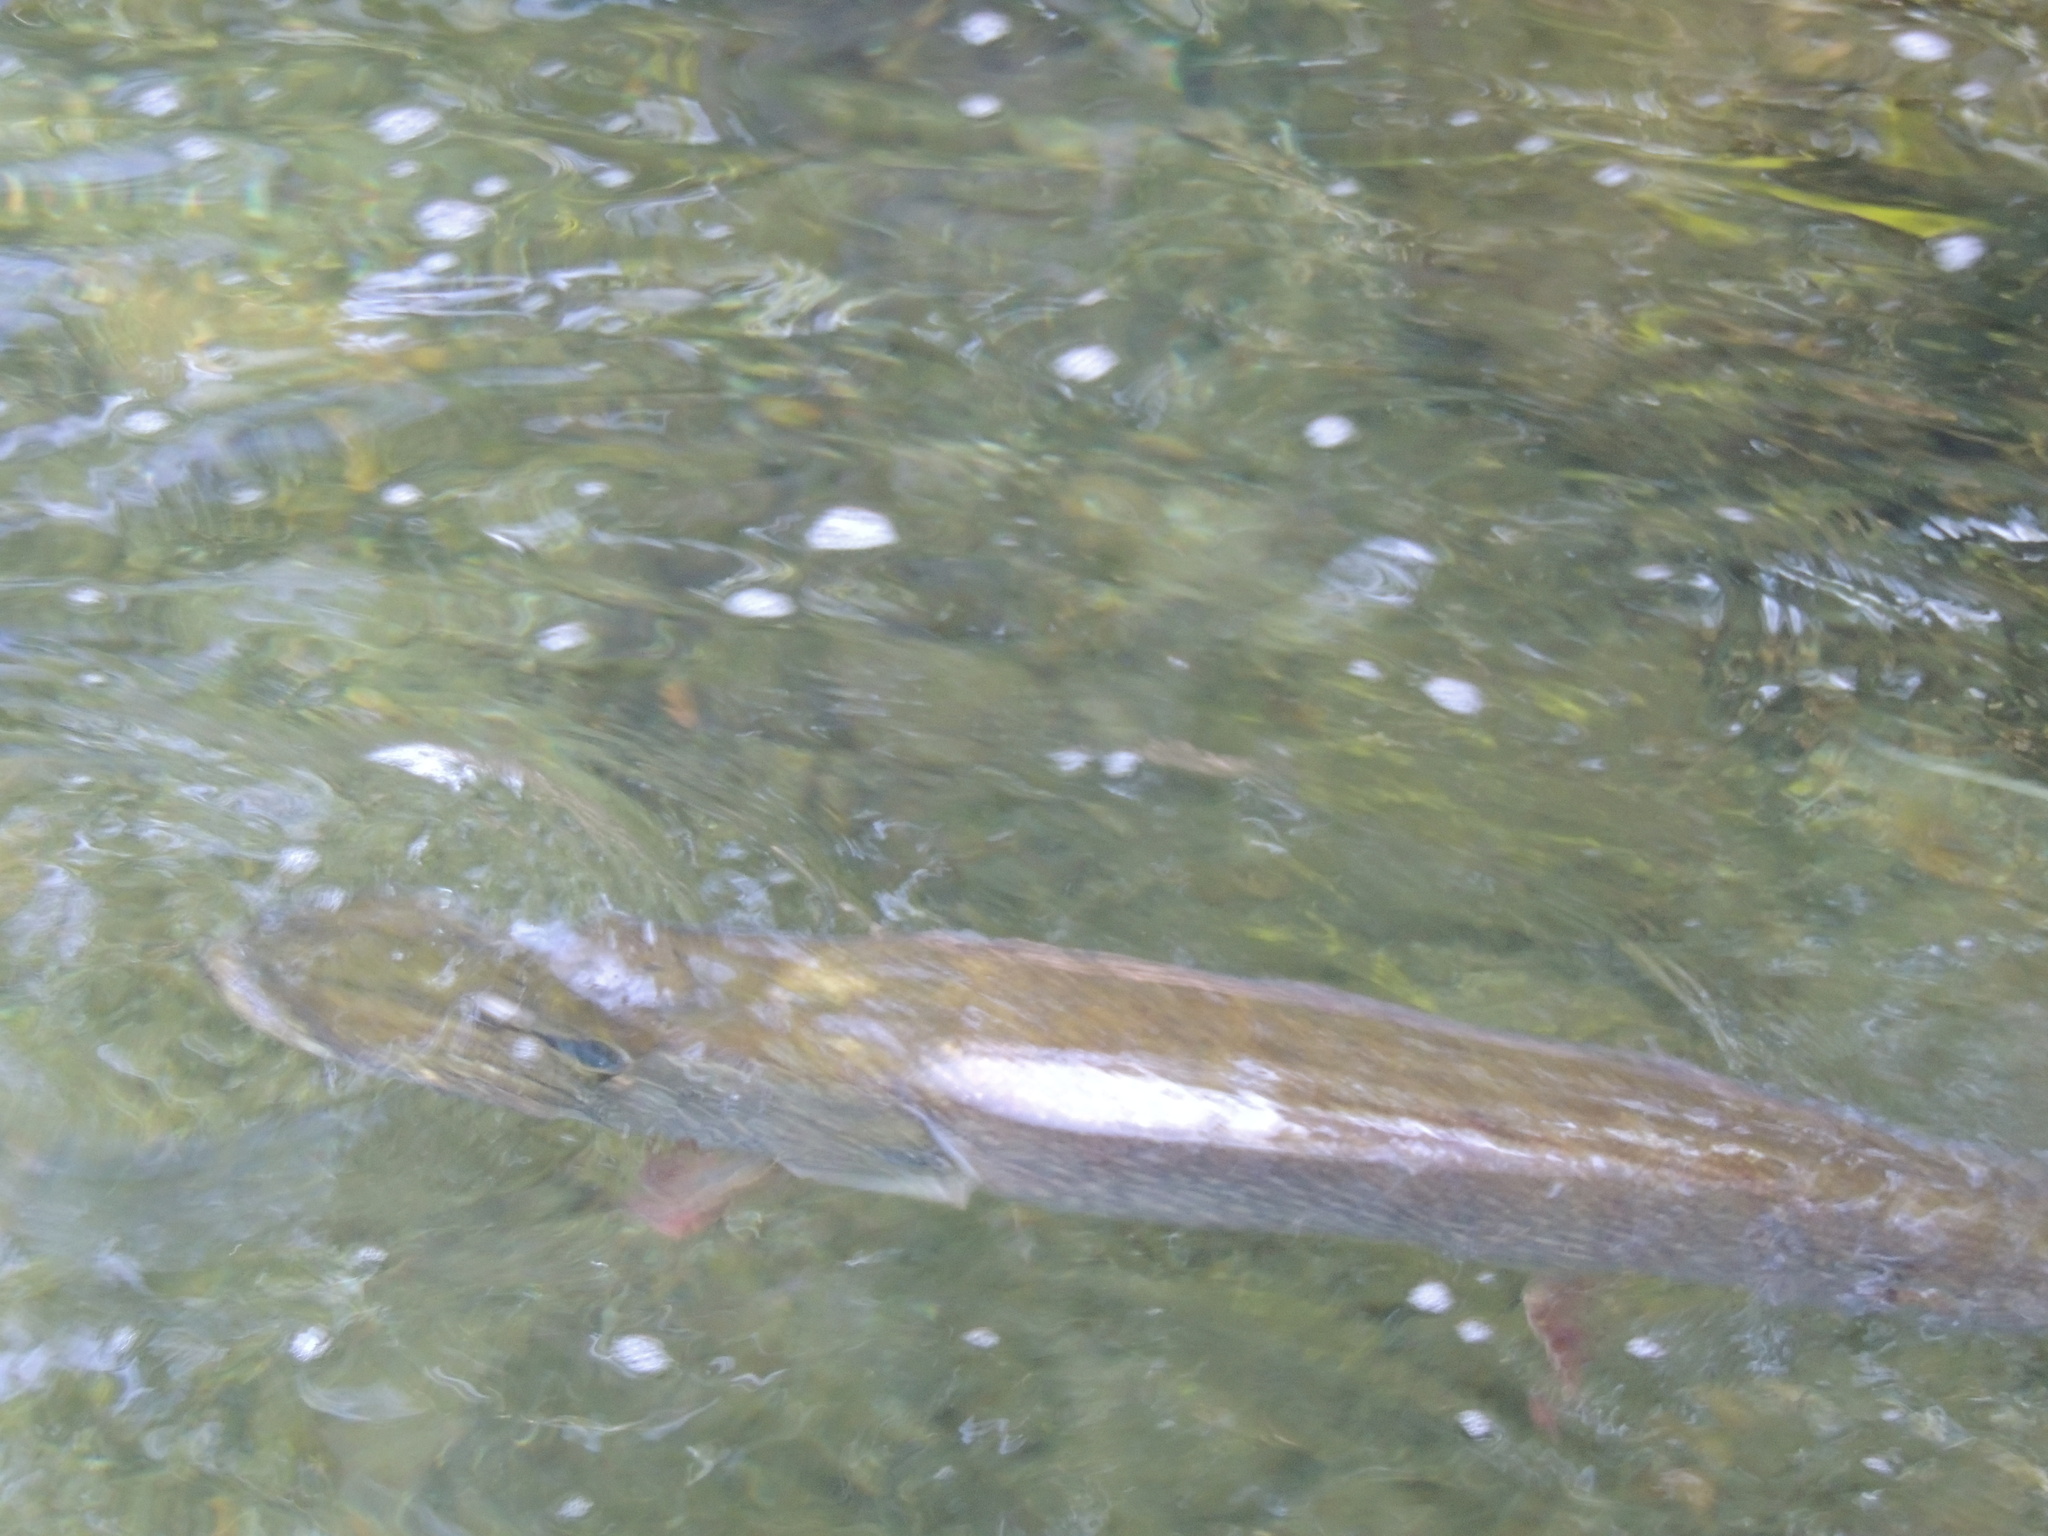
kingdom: Animalia
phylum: Chordata
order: Esociformes
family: Esocidae
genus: Esox
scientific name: Esox lucius
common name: Northern pike
